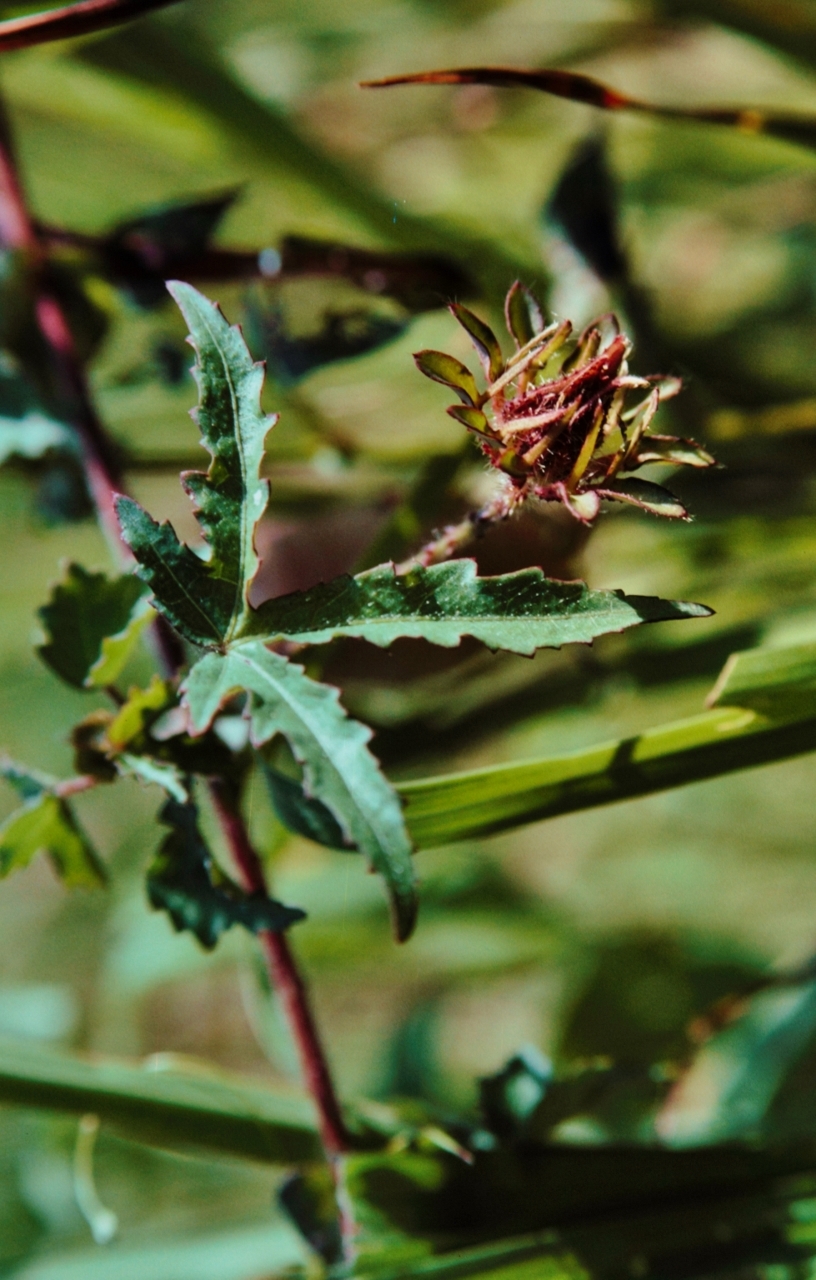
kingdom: Plantae
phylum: Tracheophyta
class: Magnoliopsida
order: Malvales
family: Malvaceae
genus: Hibiscus
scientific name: Hibiscus surattensis
